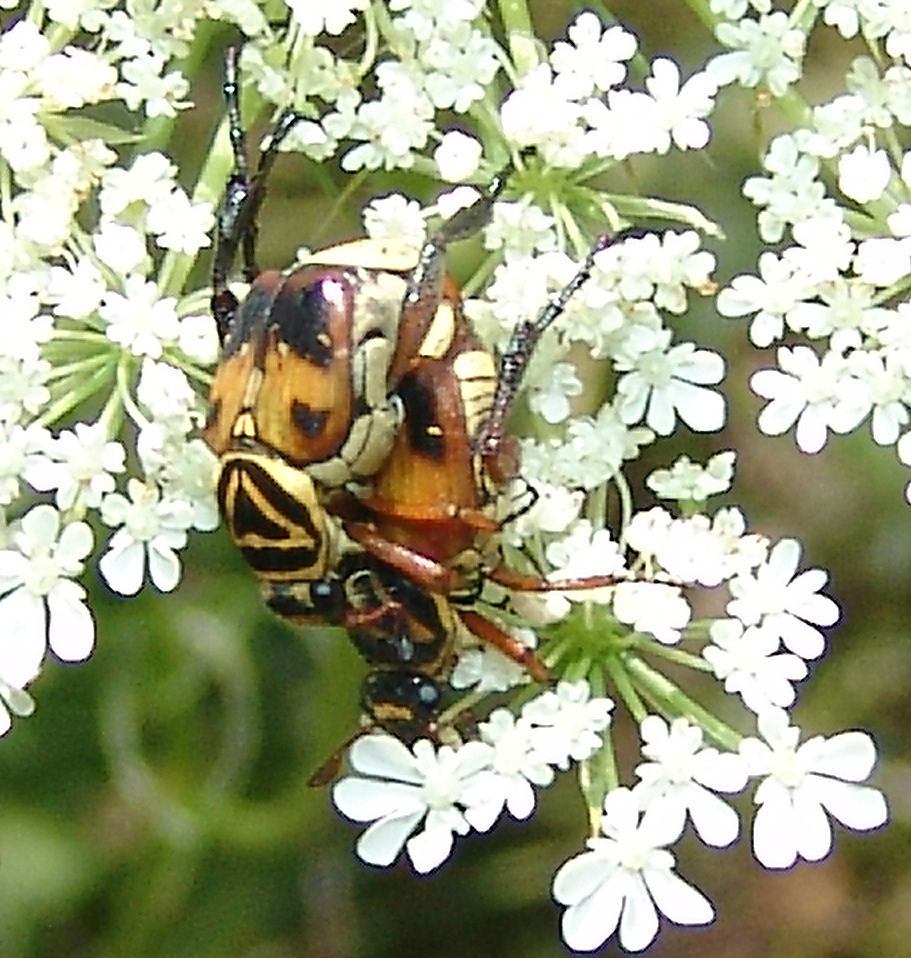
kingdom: Animalia
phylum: Arthropoda
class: Insecta
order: Coleoptera
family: Scarabaeidae
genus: Trigonopeltastes
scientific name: Trigonopeltastes delta
